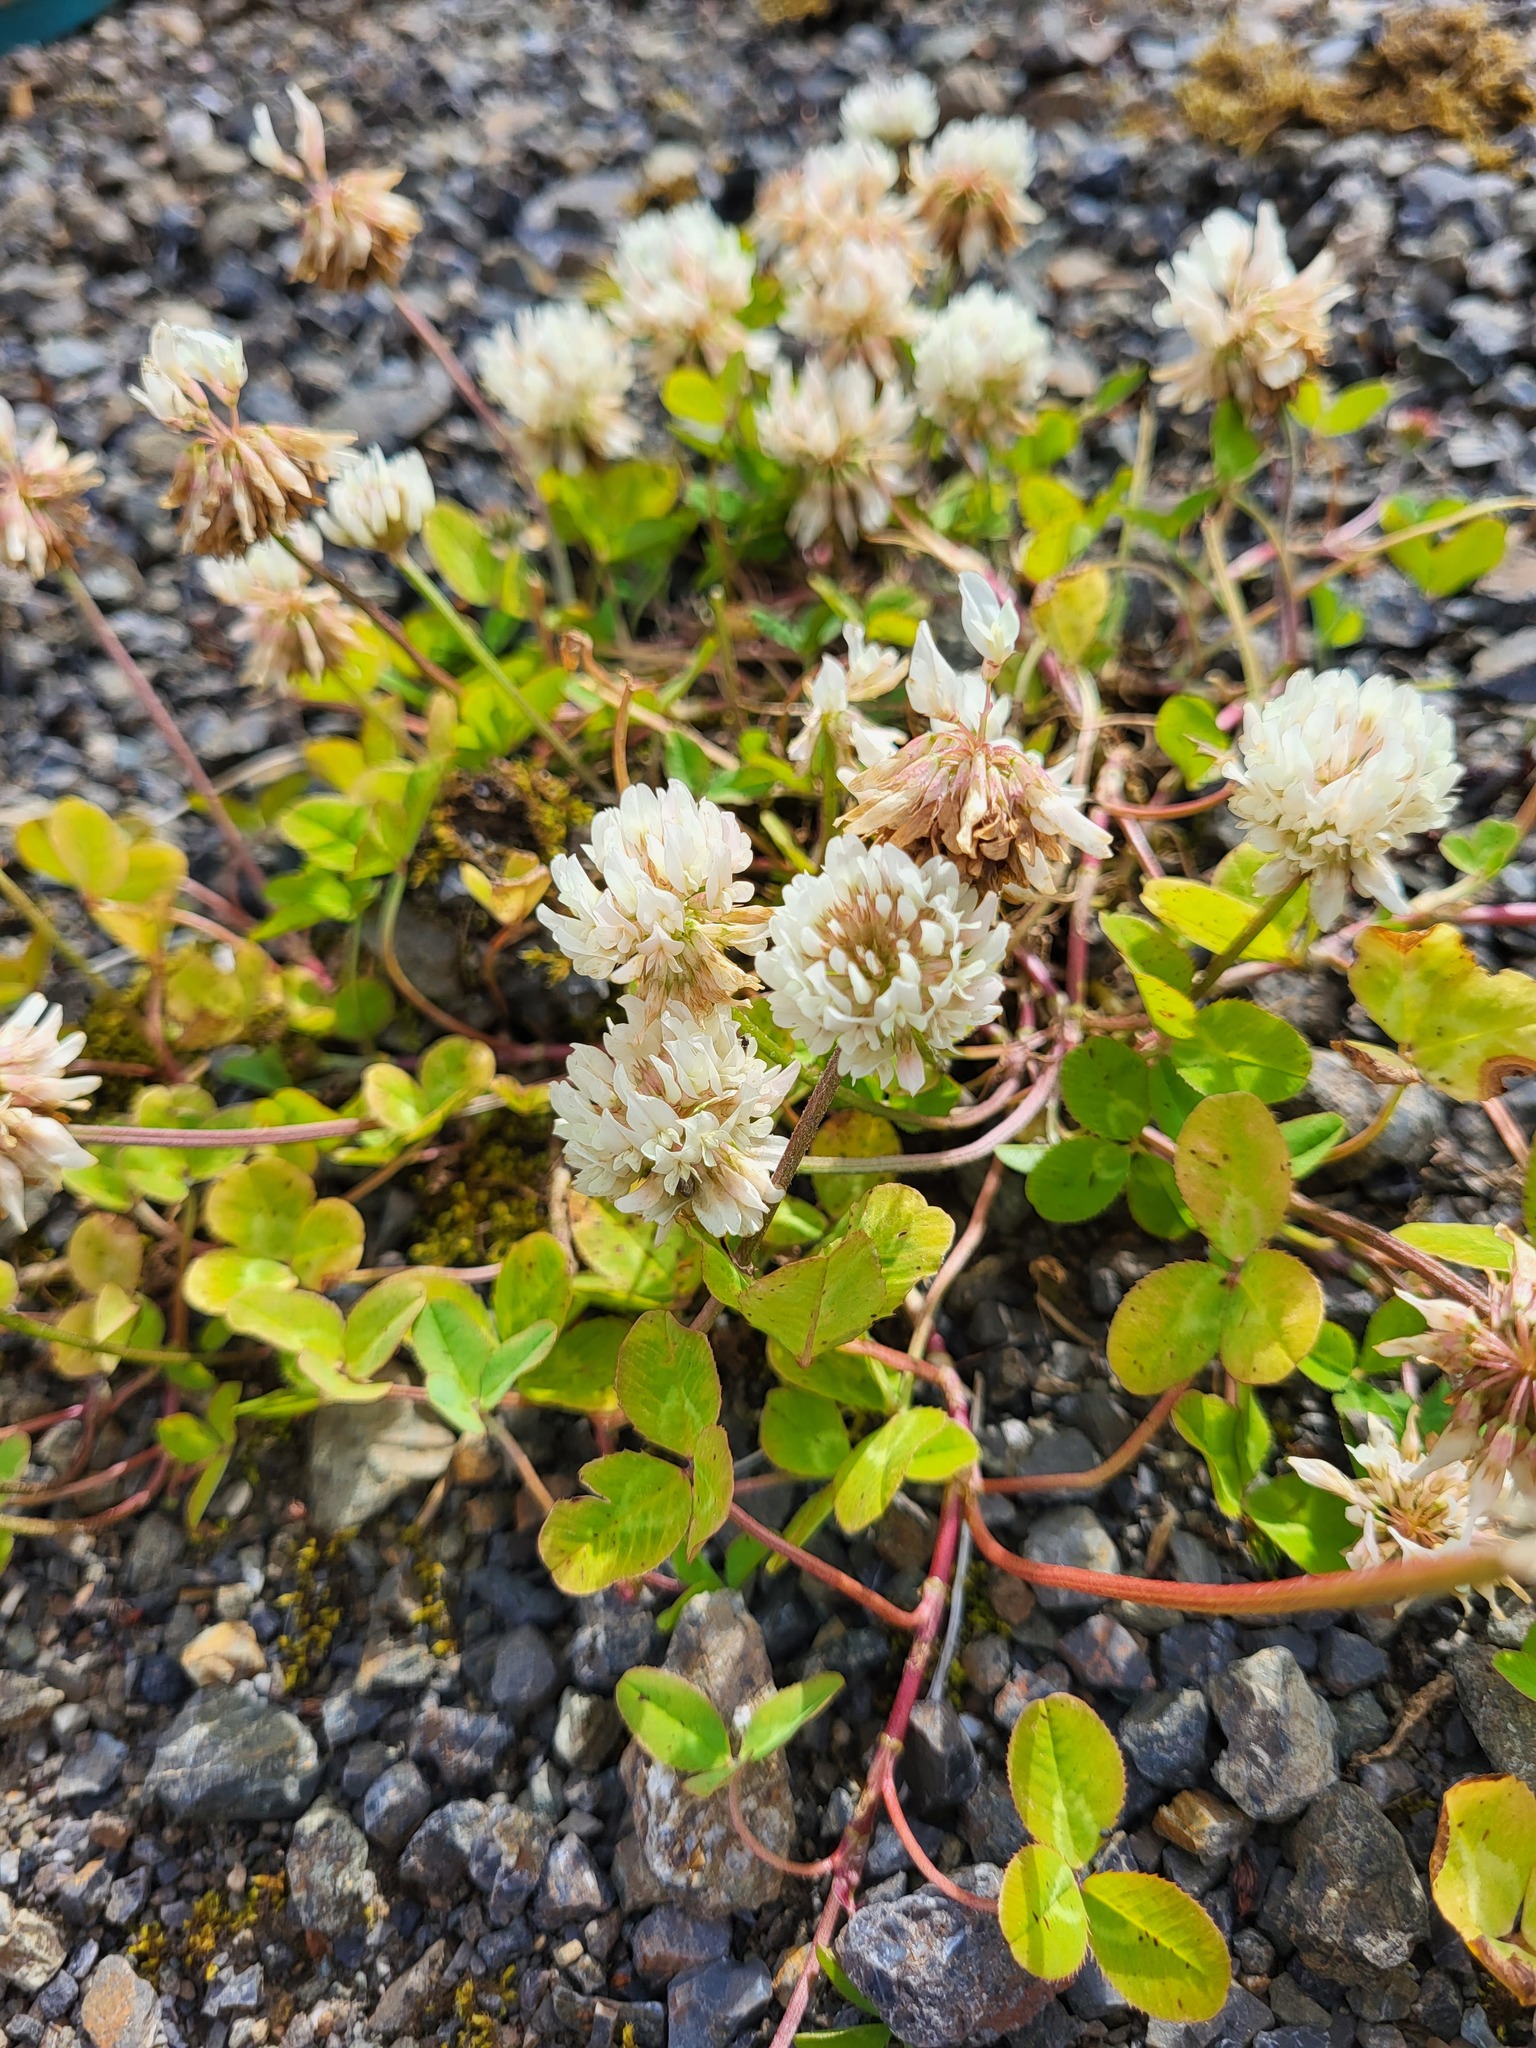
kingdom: Plantae
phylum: Tracheophyta
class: Magnoliopsida
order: Fabales
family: Fabaceae
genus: Trifolium
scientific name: Trifolium repens
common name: White clover
